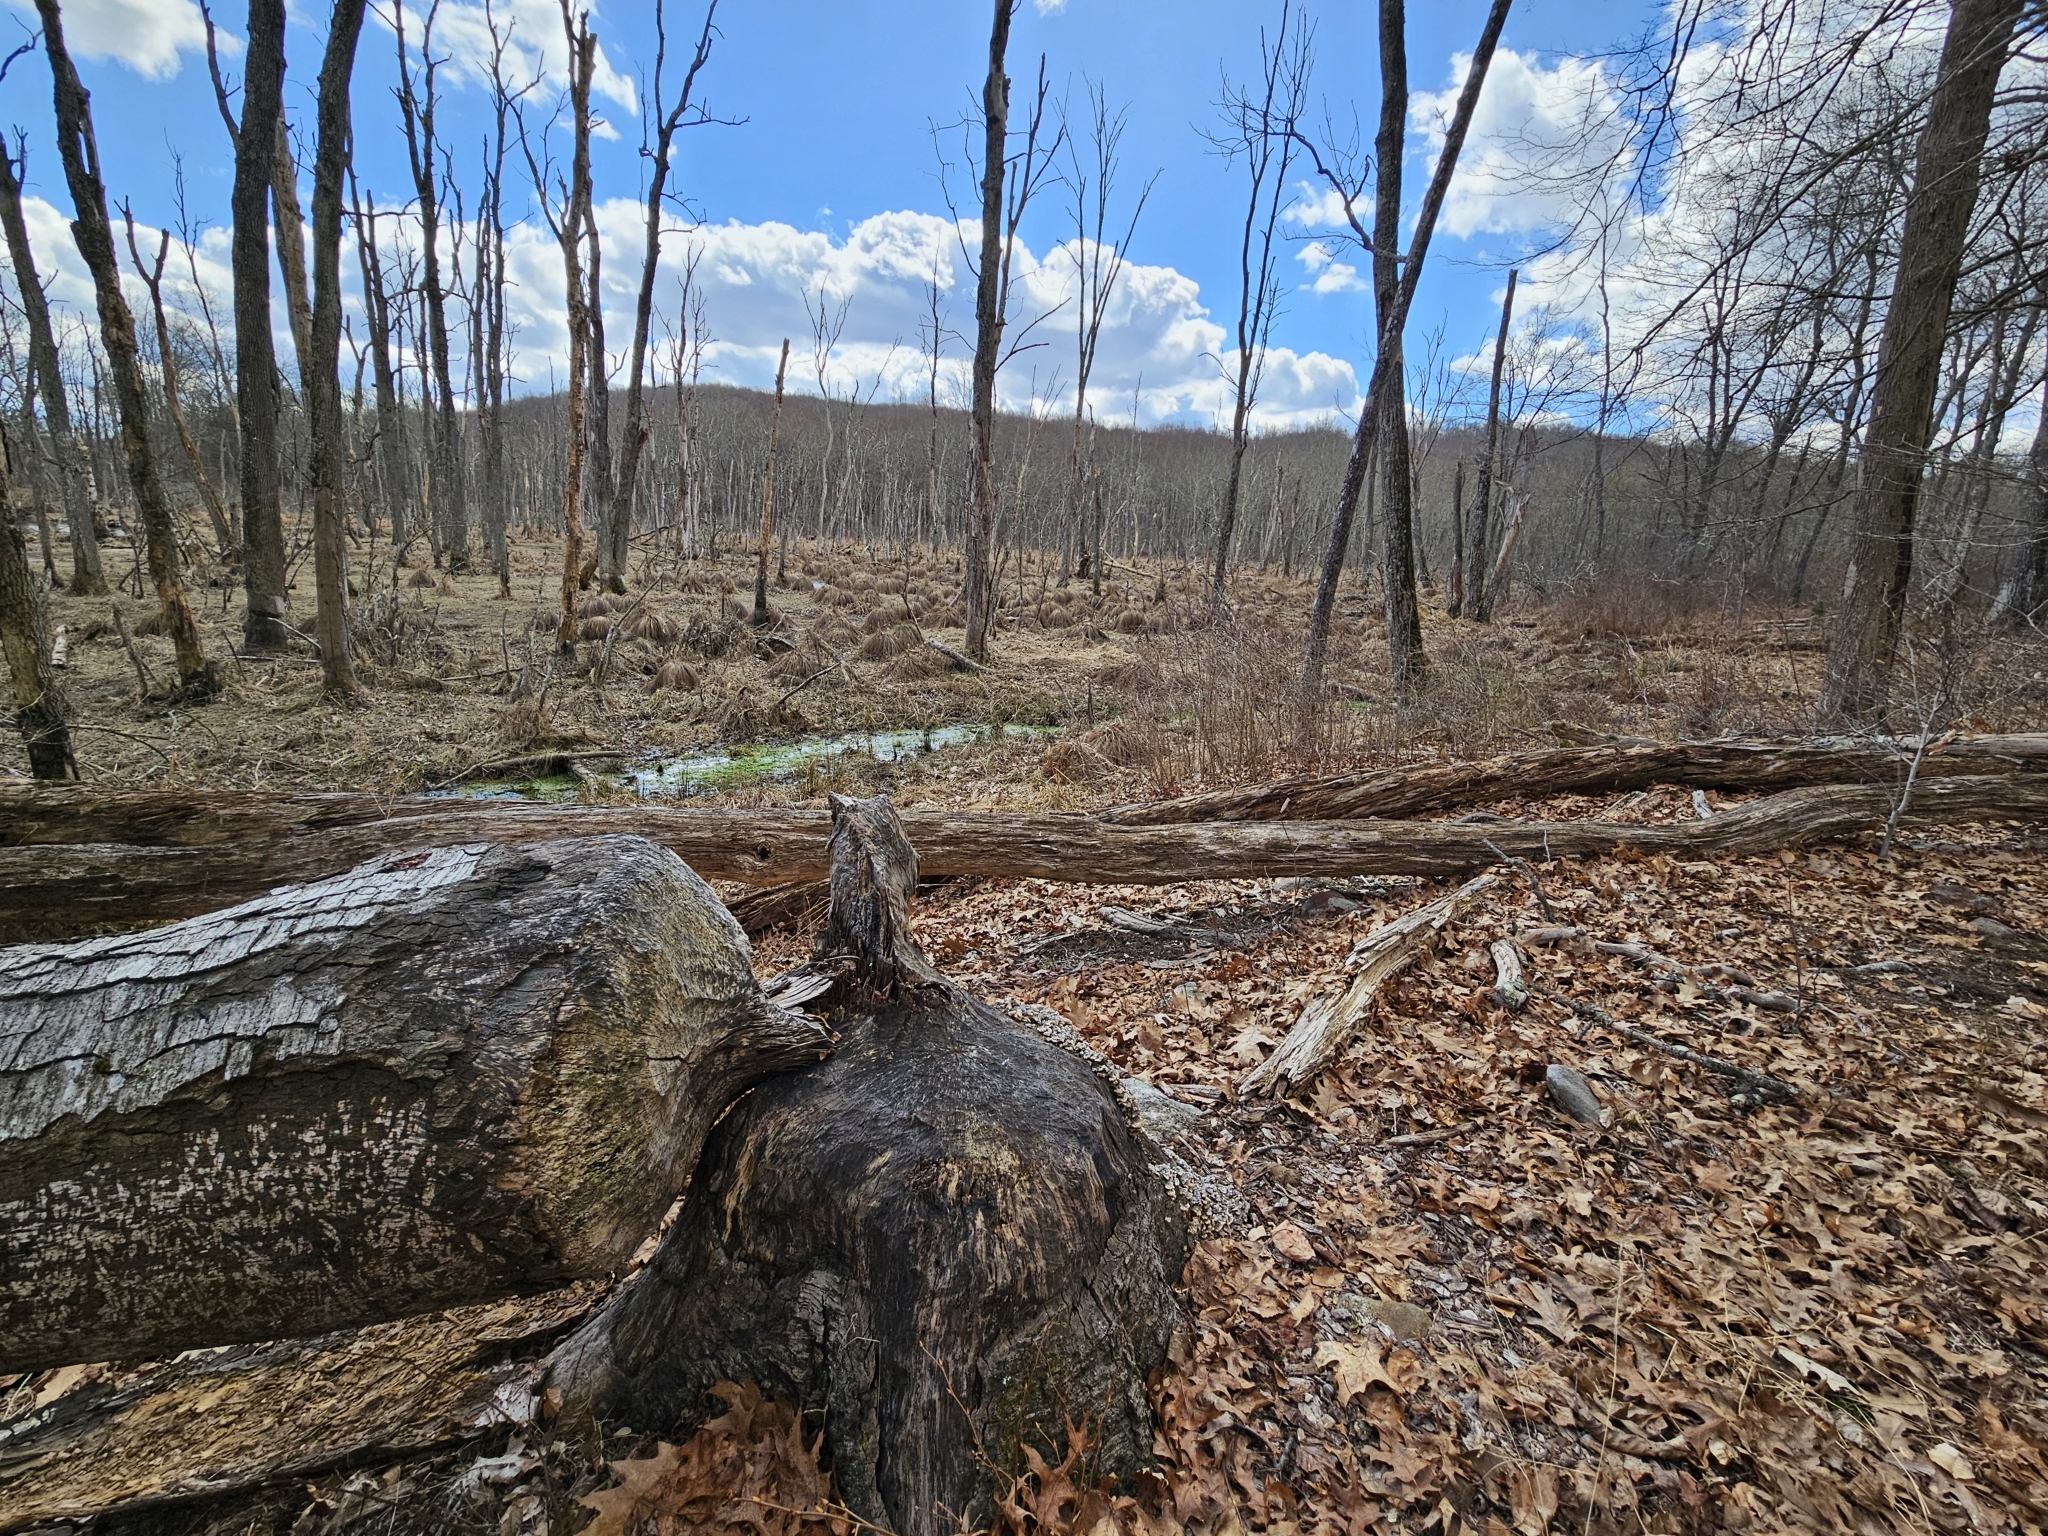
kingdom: Animalia
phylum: Chordata
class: Mammalia
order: Rodentia
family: Castoridae
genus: Castor
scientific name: Castor canadensis
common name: American beaver
